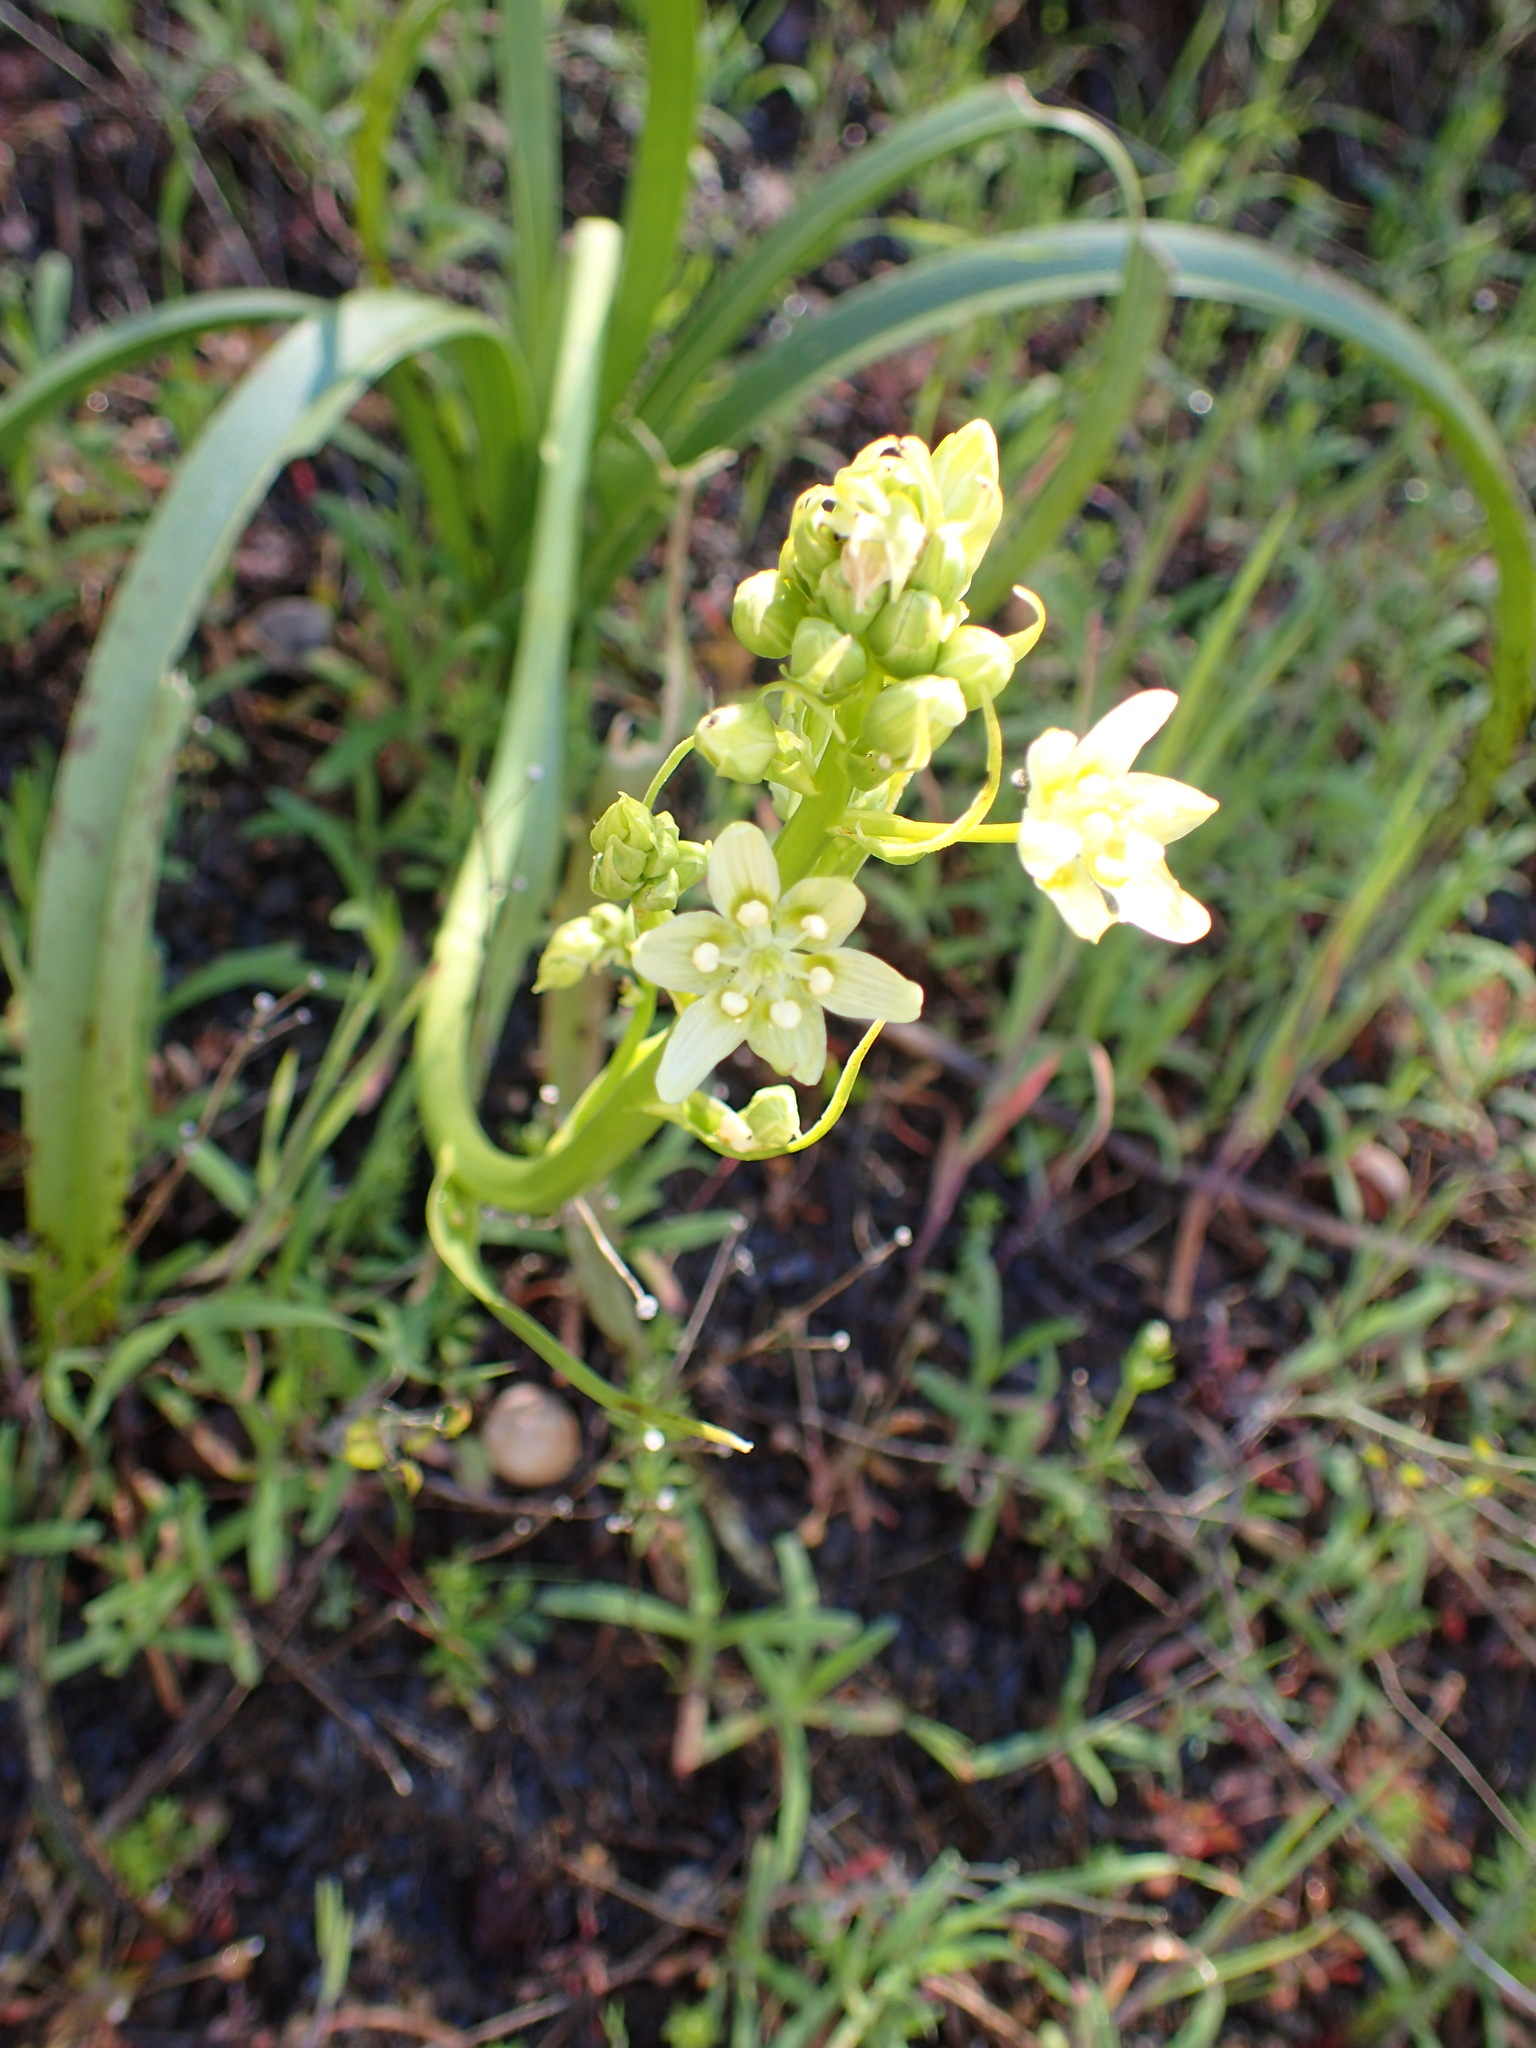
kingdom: Plantae
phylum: Tracheophyta
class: Liliopsida
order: Liliales
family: Melanthiaceae
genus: Toxicoscordion
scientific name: Toxicoscordion fremontii
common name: Fremont's death camas
